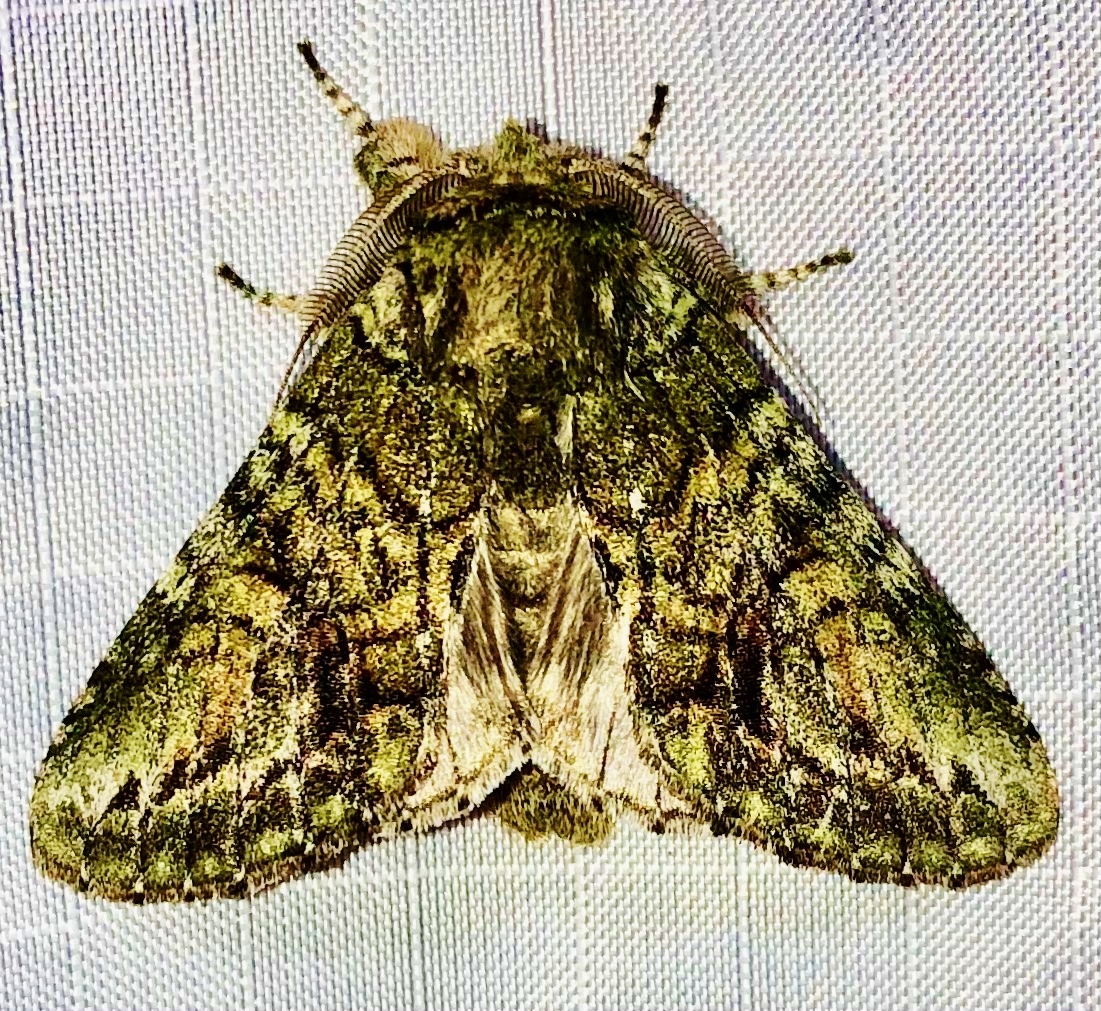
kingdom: Animalia
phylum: Arthropoda
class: Insecta
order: Lepidoptera
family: Notodontidae
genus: Heterocampa
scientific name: Heterocampa
